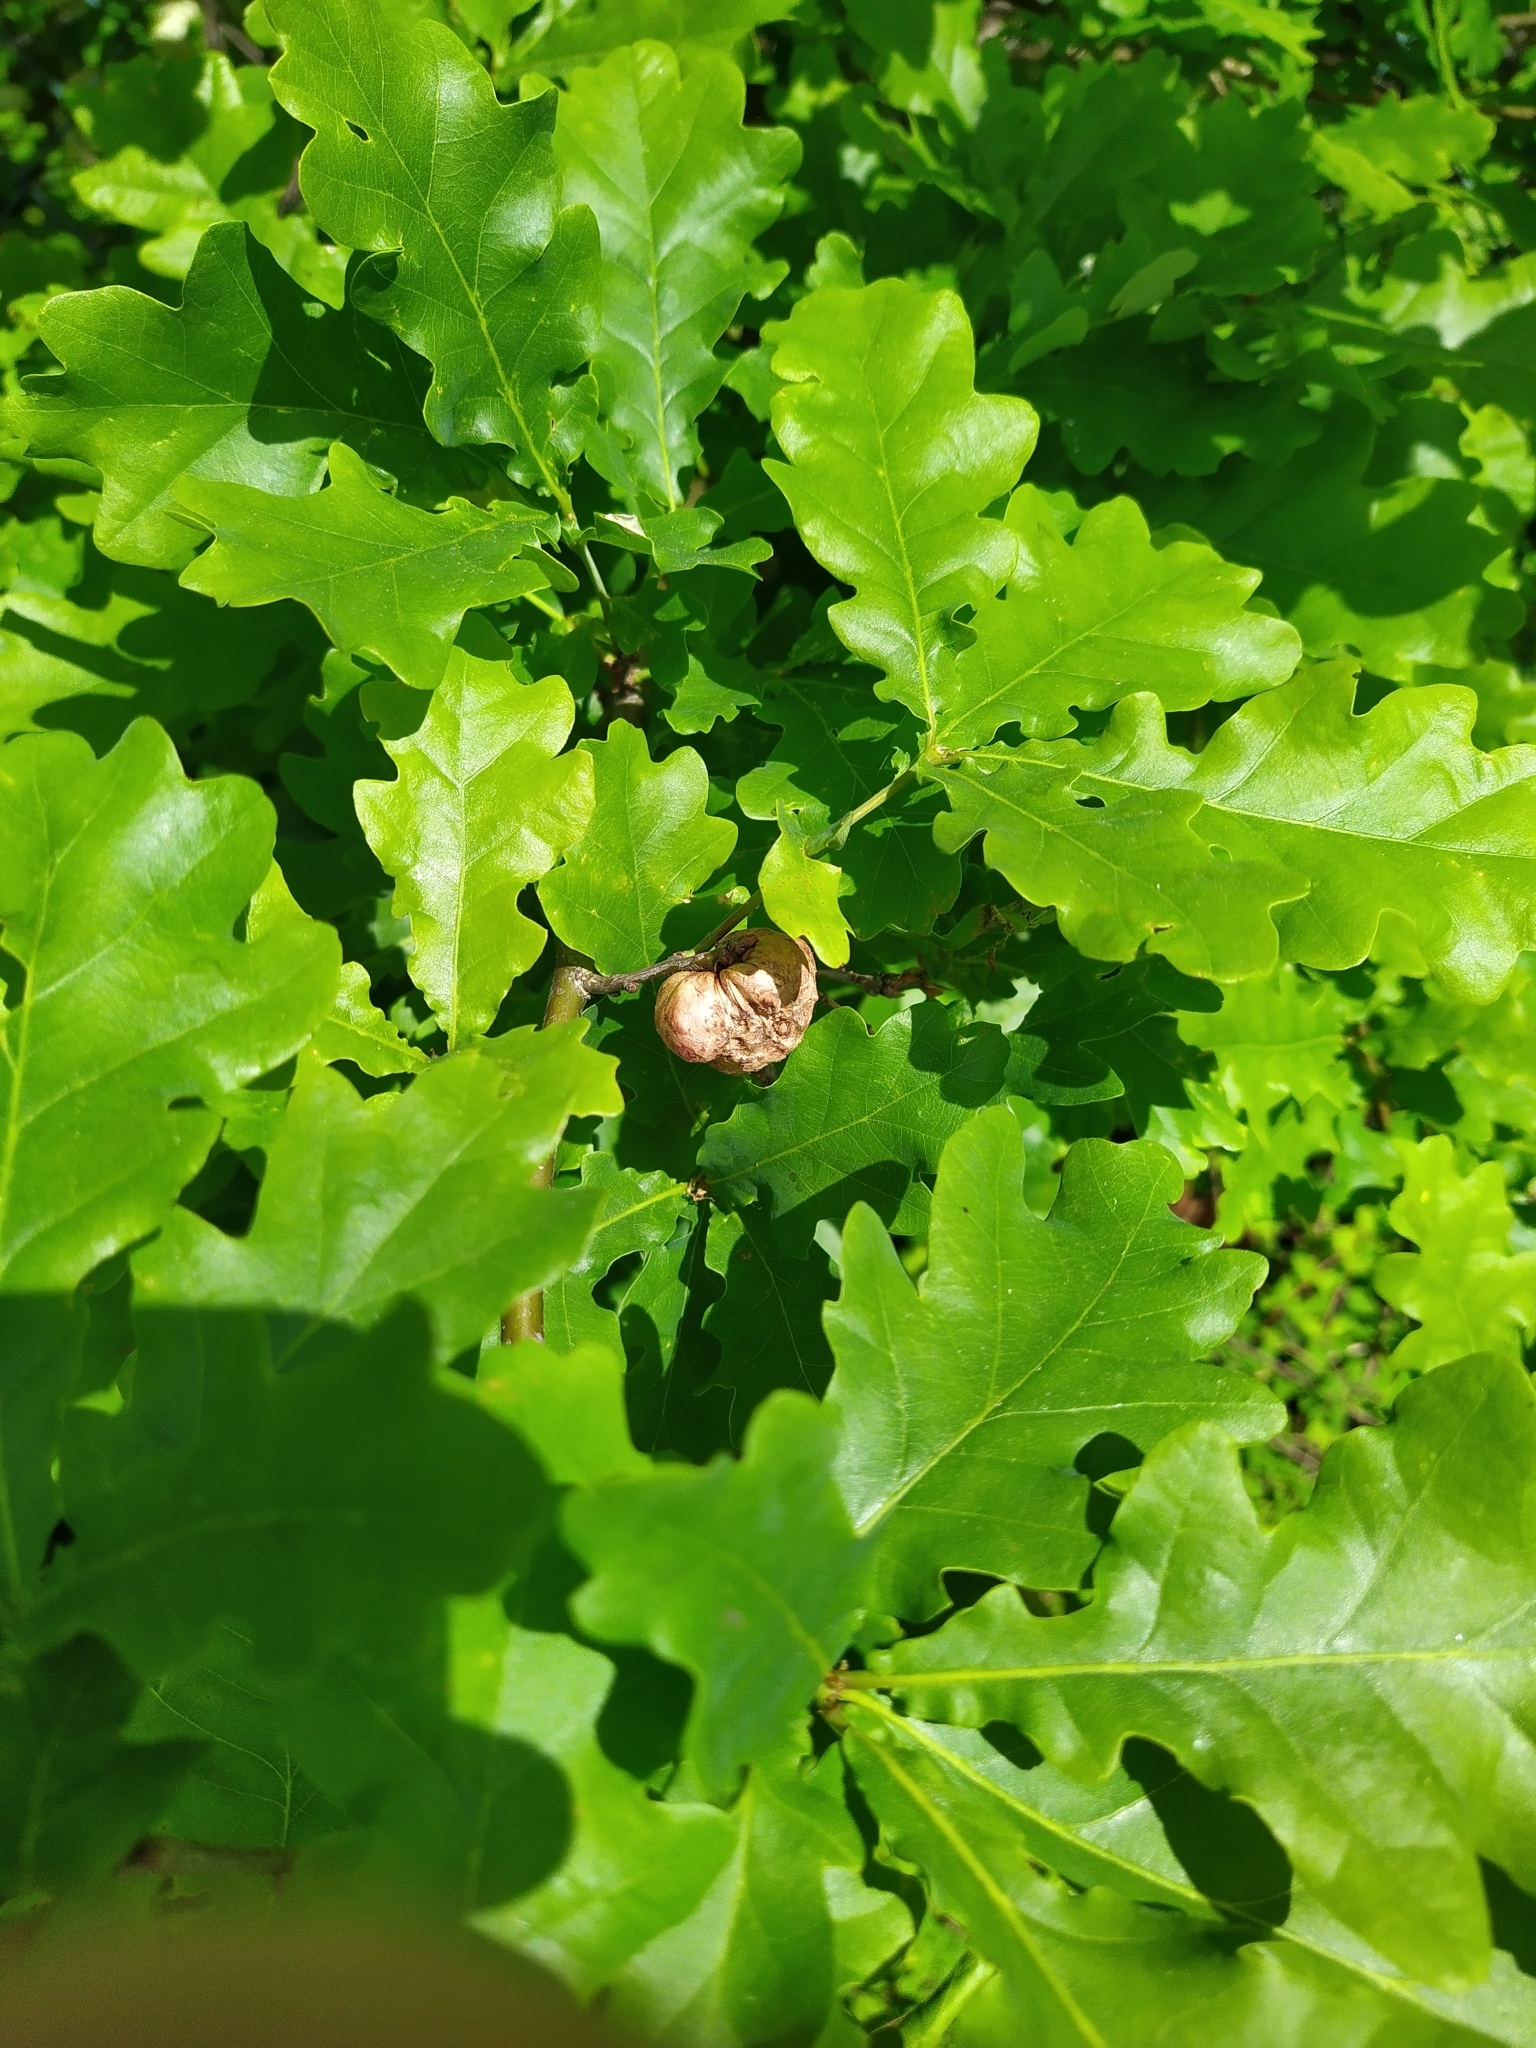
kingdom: Animalia
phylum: Arthropoda
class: Insecta
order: Hymenoptera
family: Cynipidae
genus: Biorhiza
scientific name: Biorhiza pallida
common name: Oak apple
